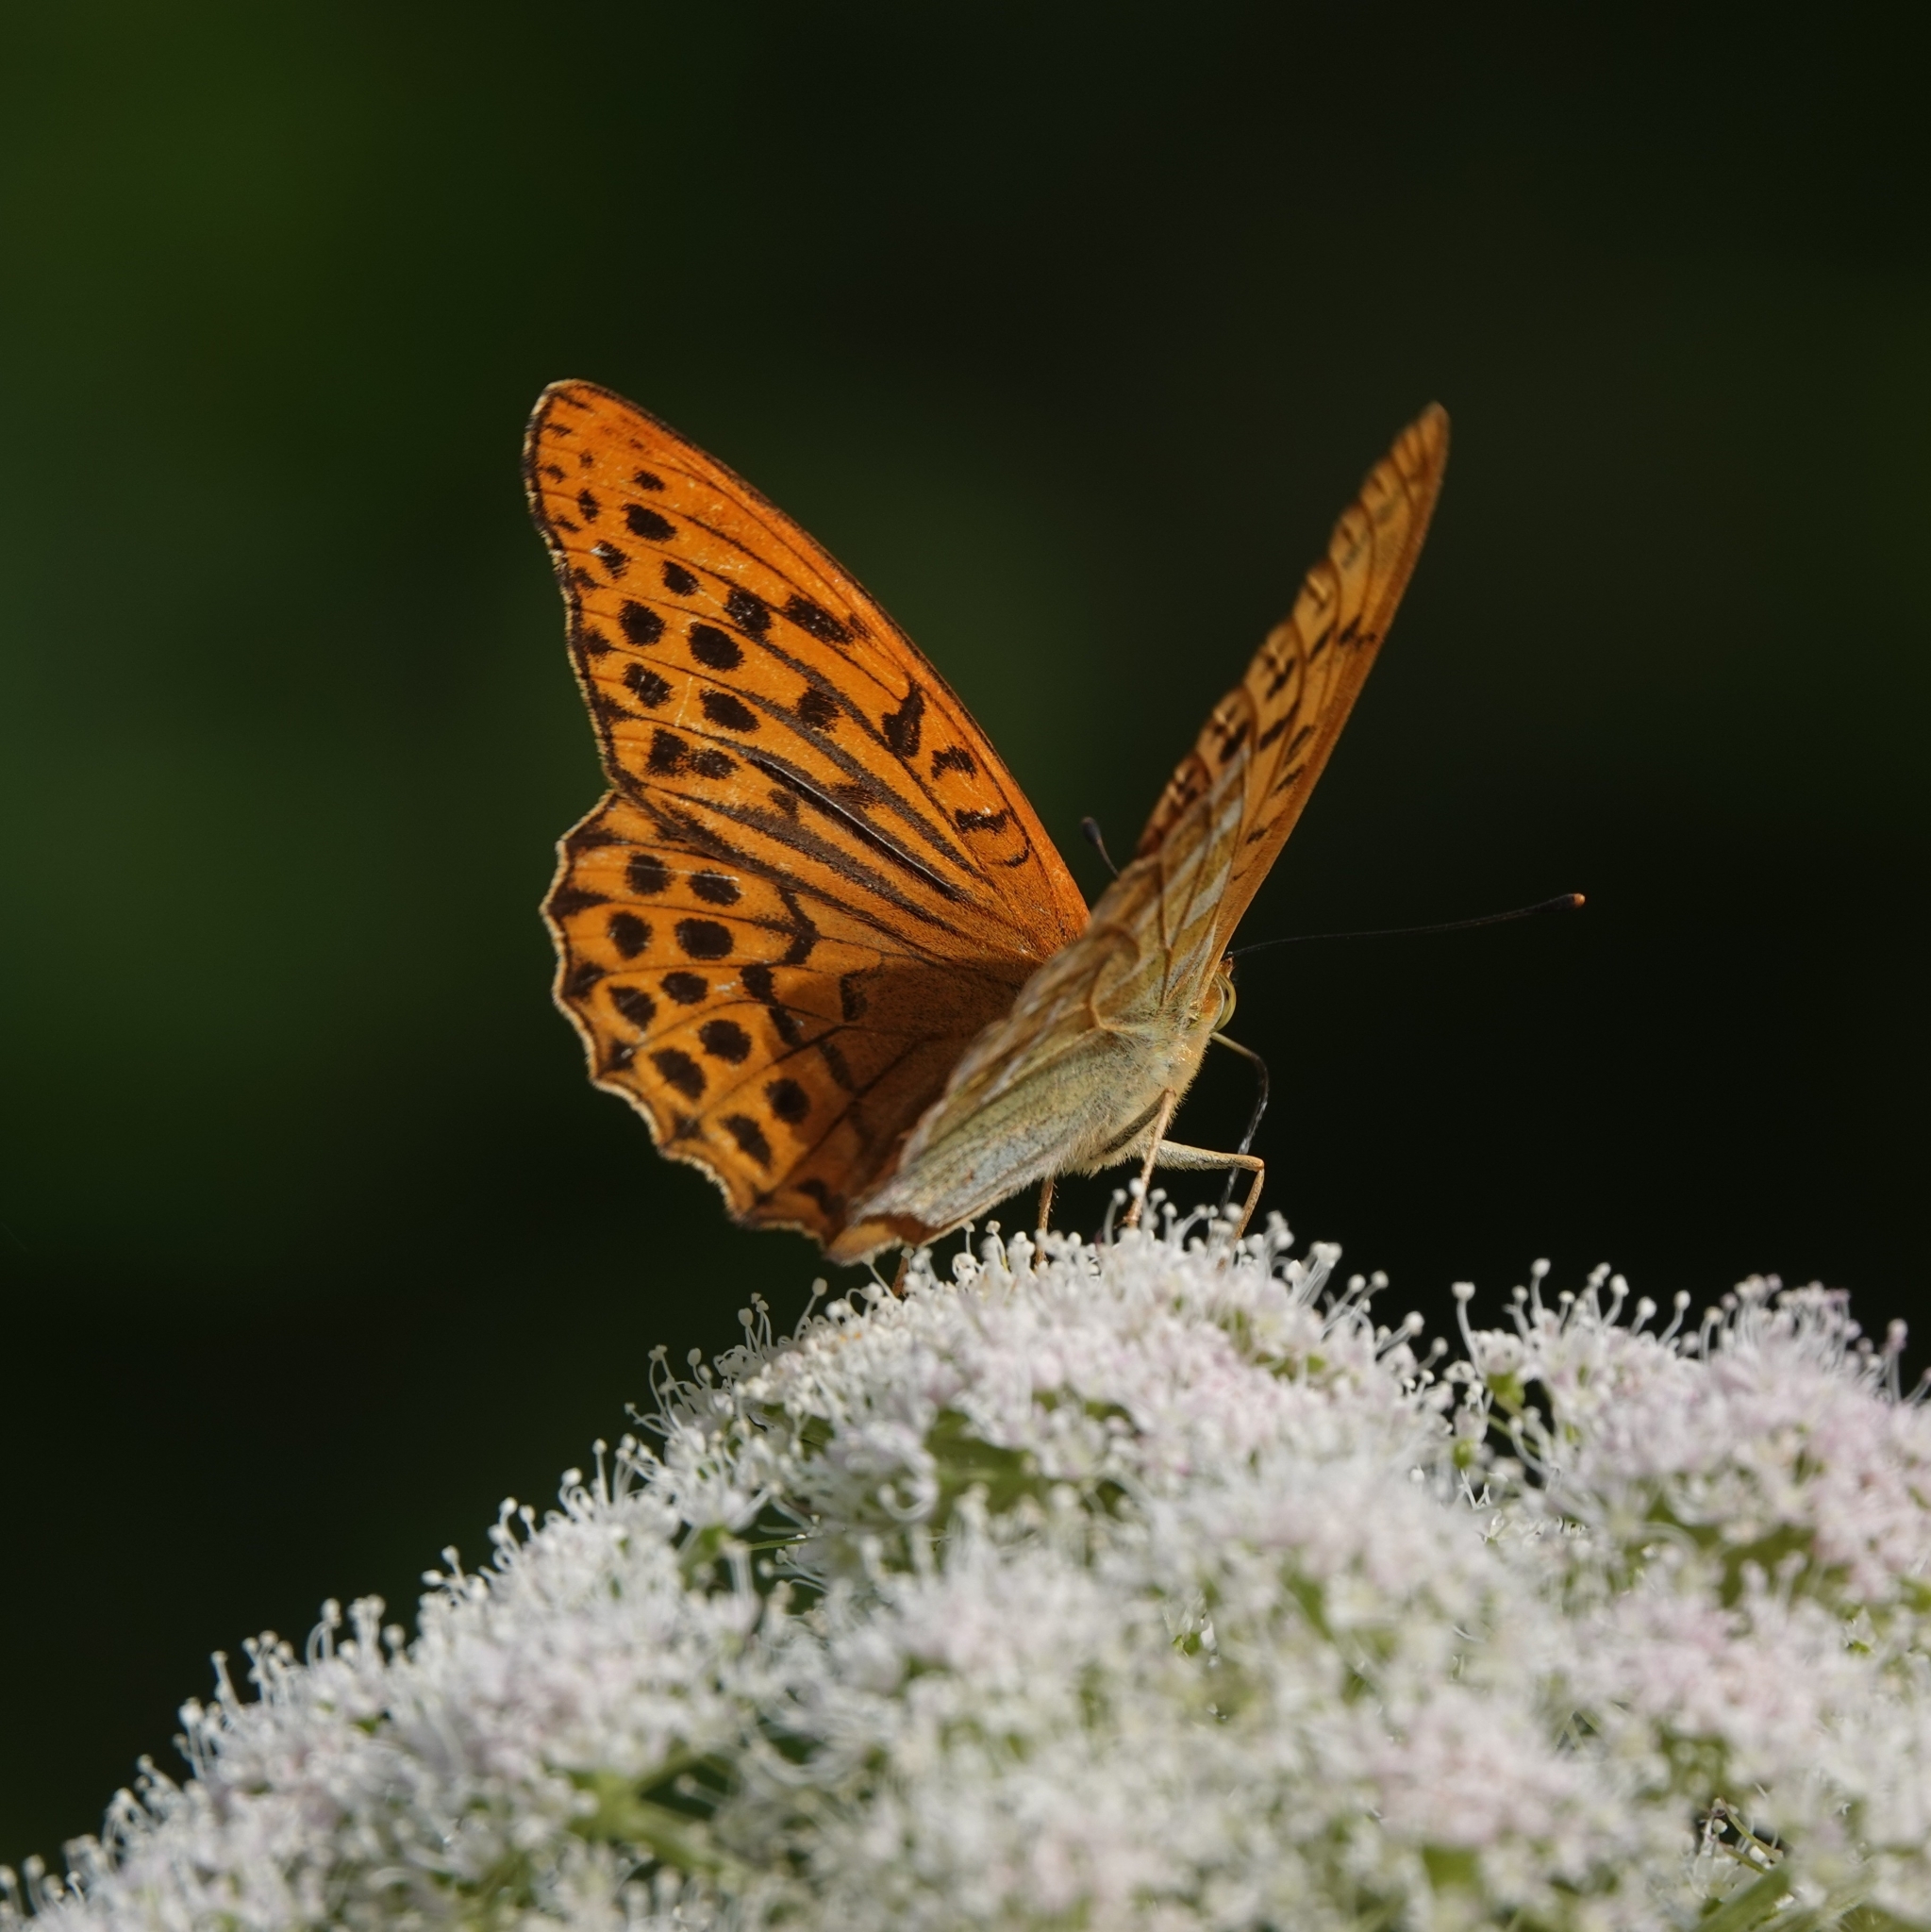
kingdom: Animalia
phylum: Arthropoda
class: Insecta
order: Lepidoptera
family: Nymphalidae
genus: Argynnis
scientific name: Argynnis paphia
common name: Silver-washed fritillary
